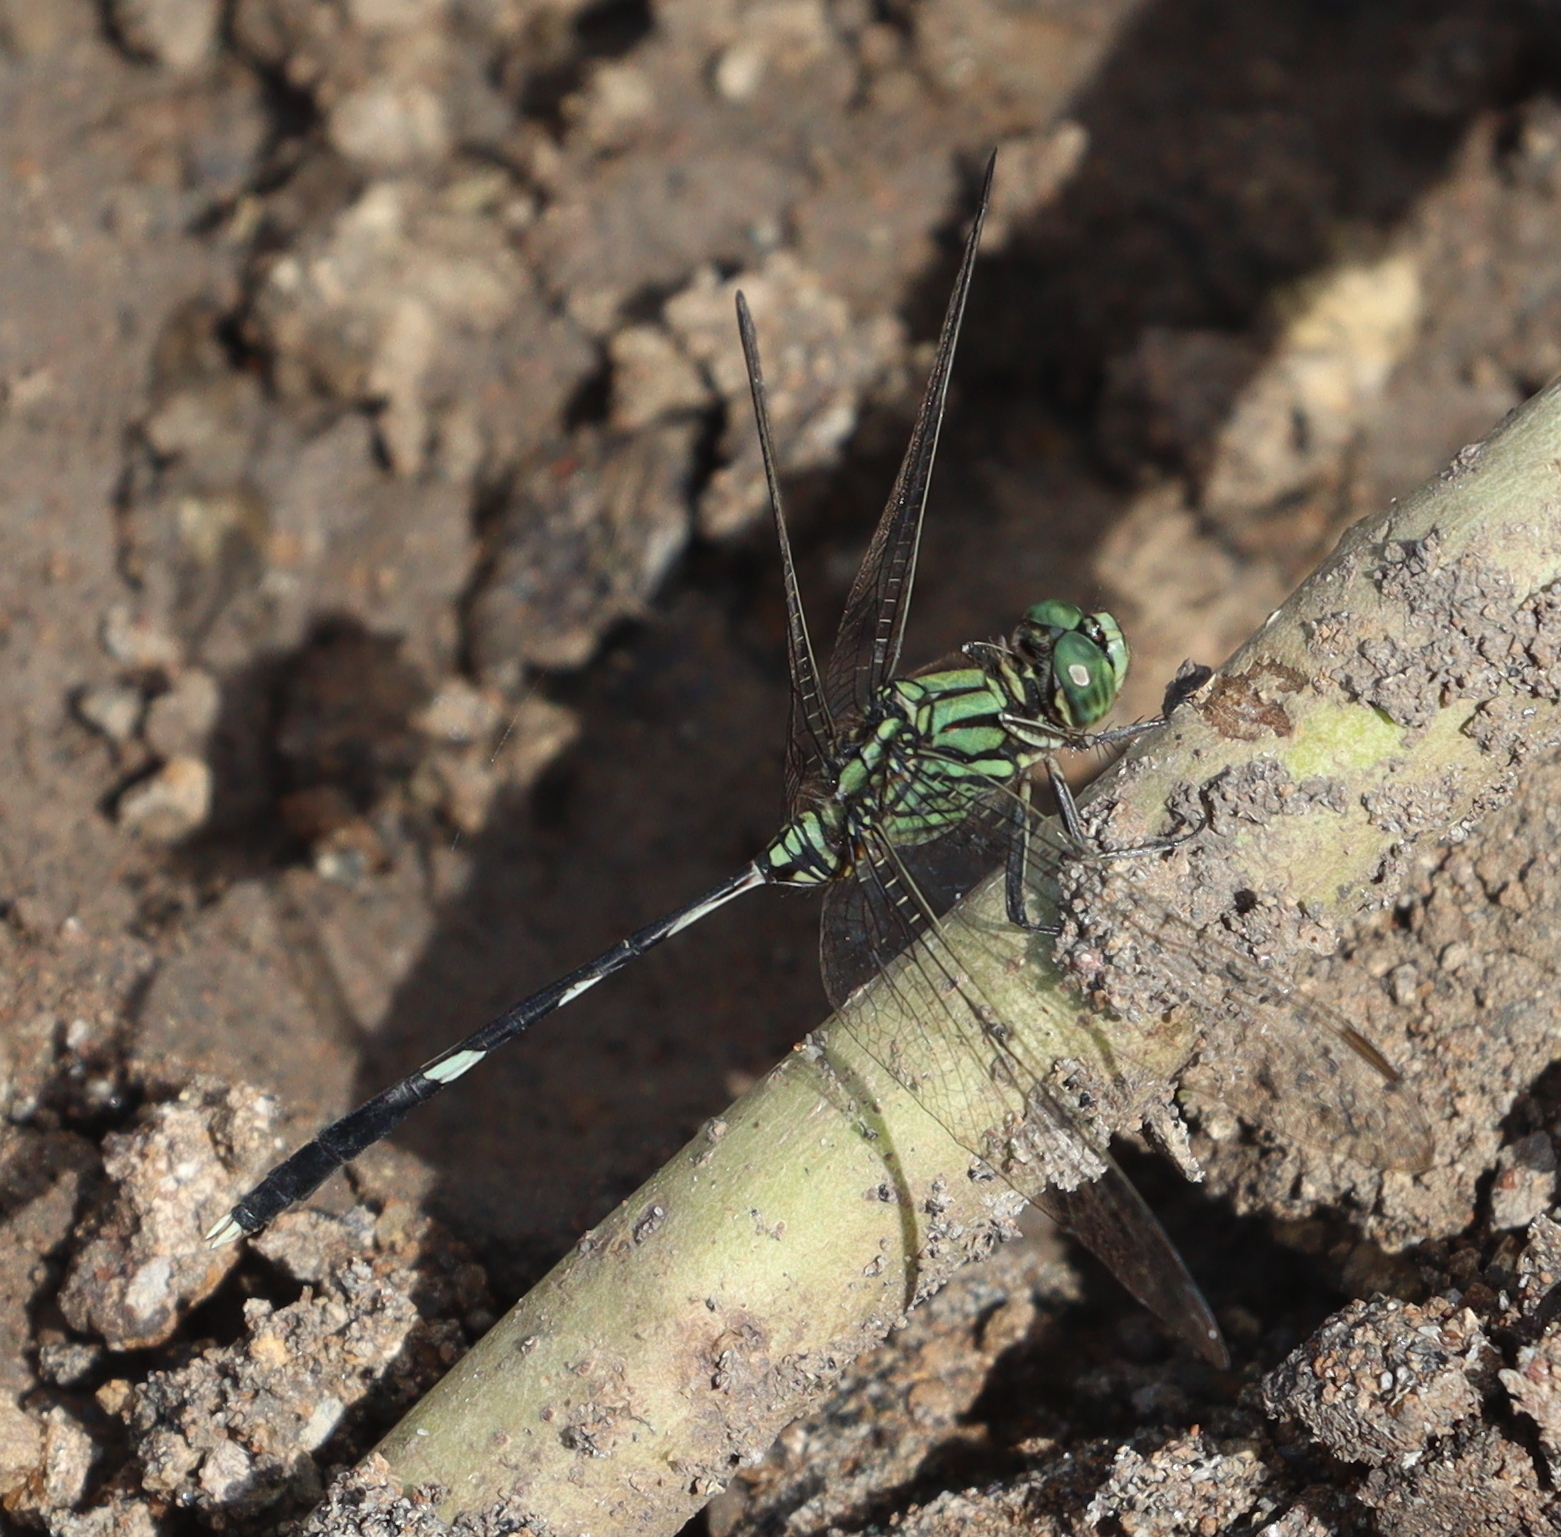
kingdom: Animalia
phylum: Arthropoda
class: Insecta
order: Odonata
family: Libellulidae
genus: Orthetrum
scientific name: Orthetrum sabina
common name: Slender skimmer
